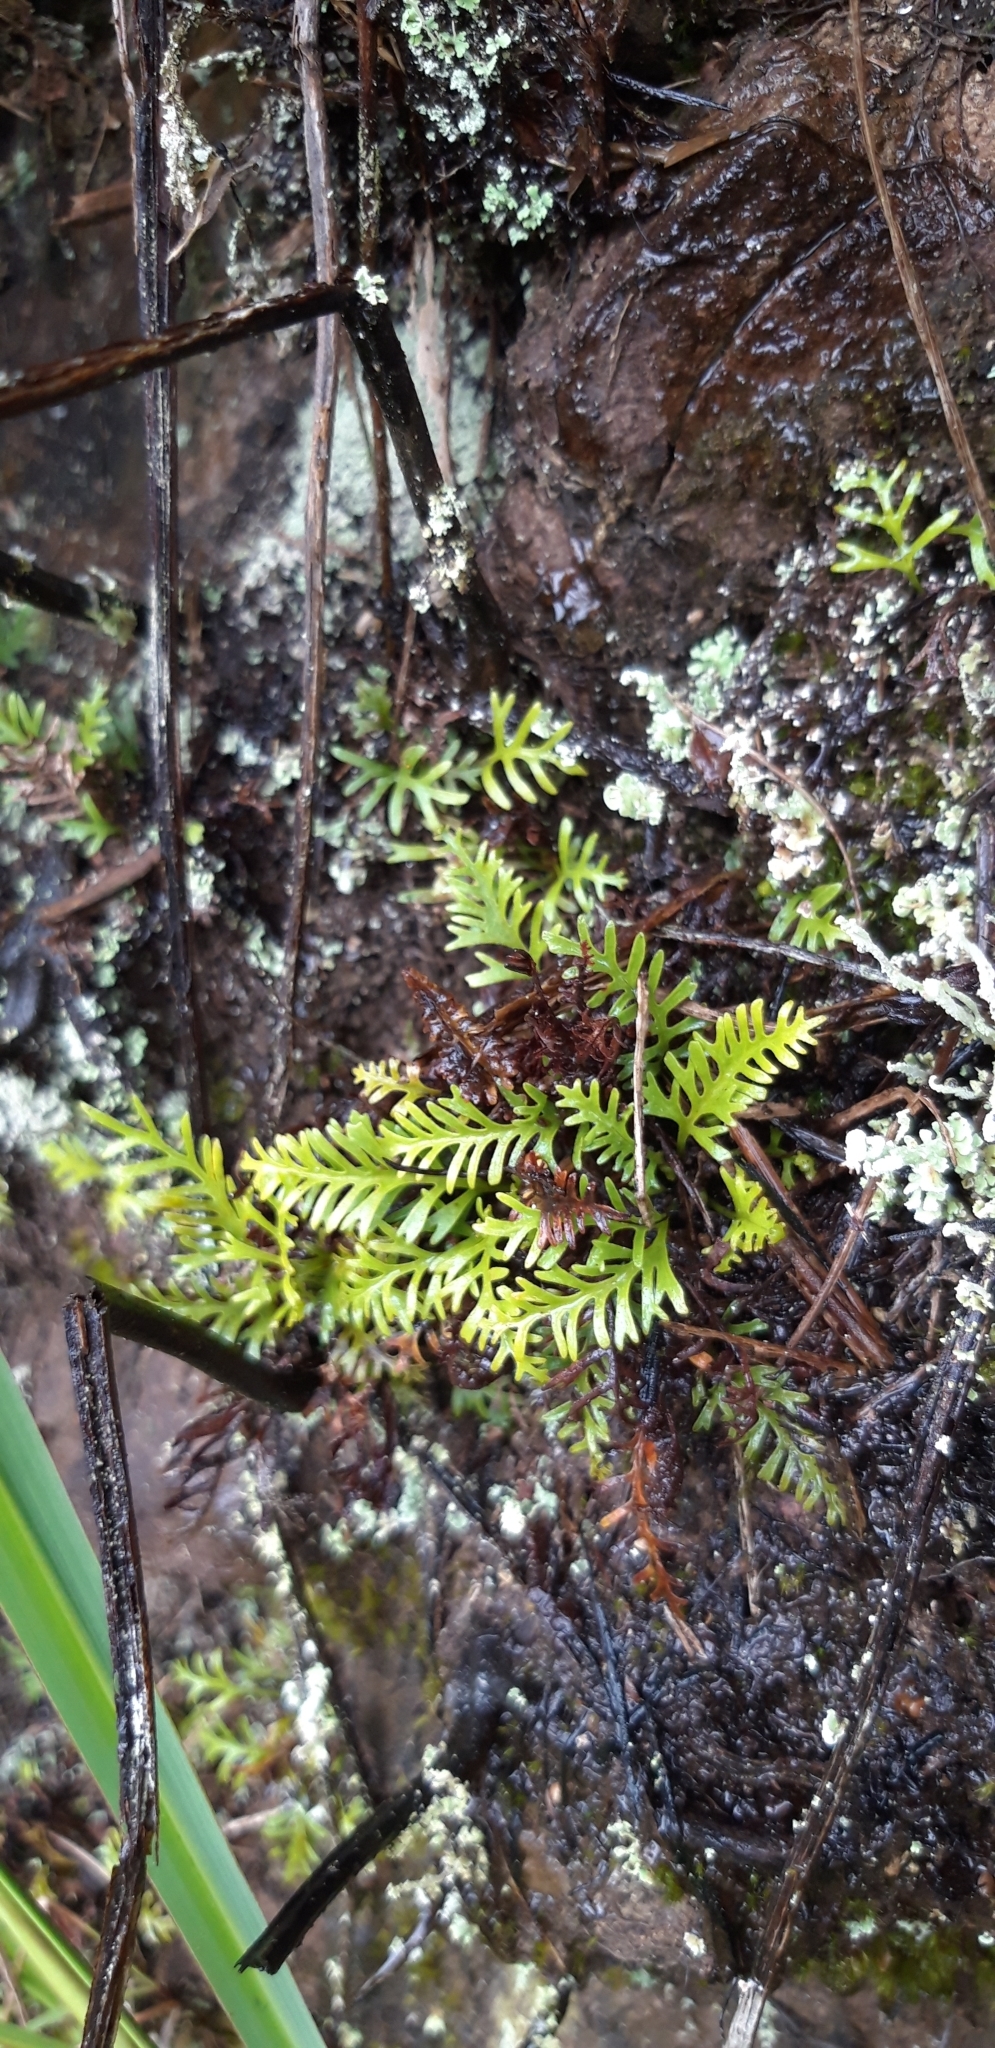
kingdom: Plantae
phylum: Tracheophyta
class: Polypodiopsida
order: Polypodiales
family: Dryopteridaceae
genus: Elaphoglossum
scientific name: Elaphoglossum furcatum
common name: Mossy fern
